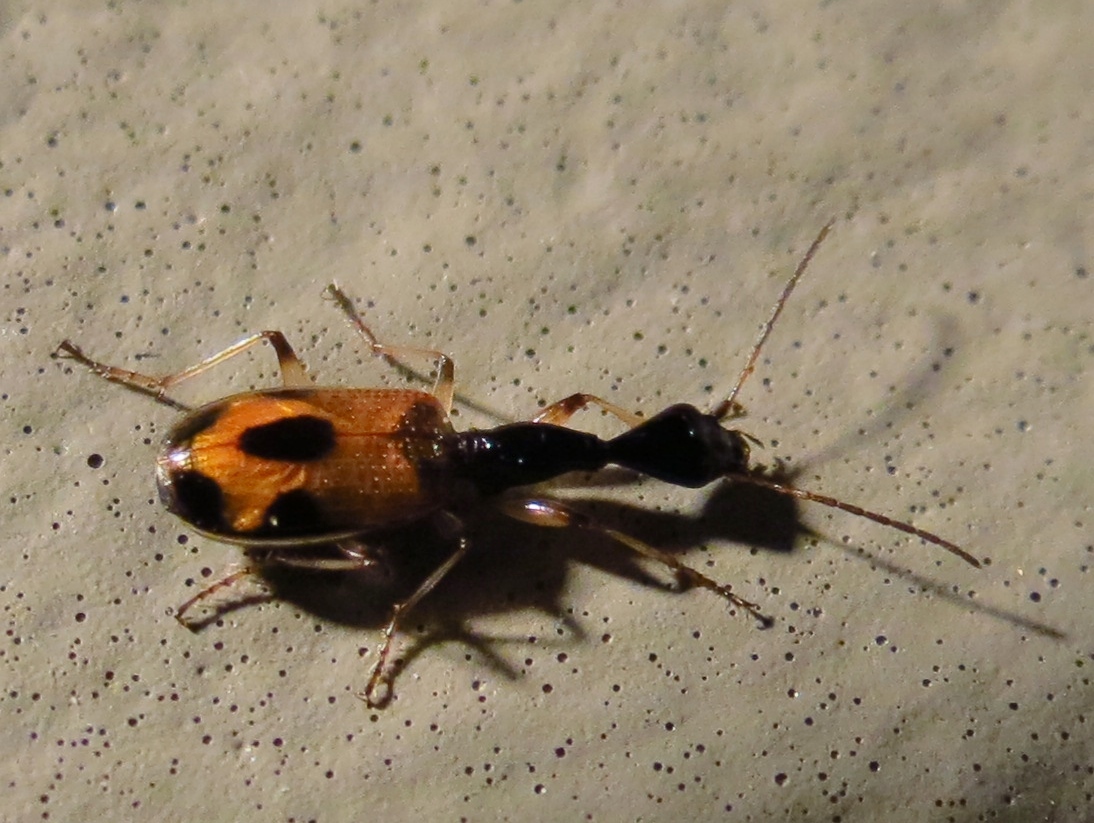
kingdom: Animalia
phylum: Arthropoda
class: Insecta
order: Coleoptera
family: Carabidae
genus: Colliuris
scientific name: Colliuris pensylvanica
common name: Long-necked ground beetle
